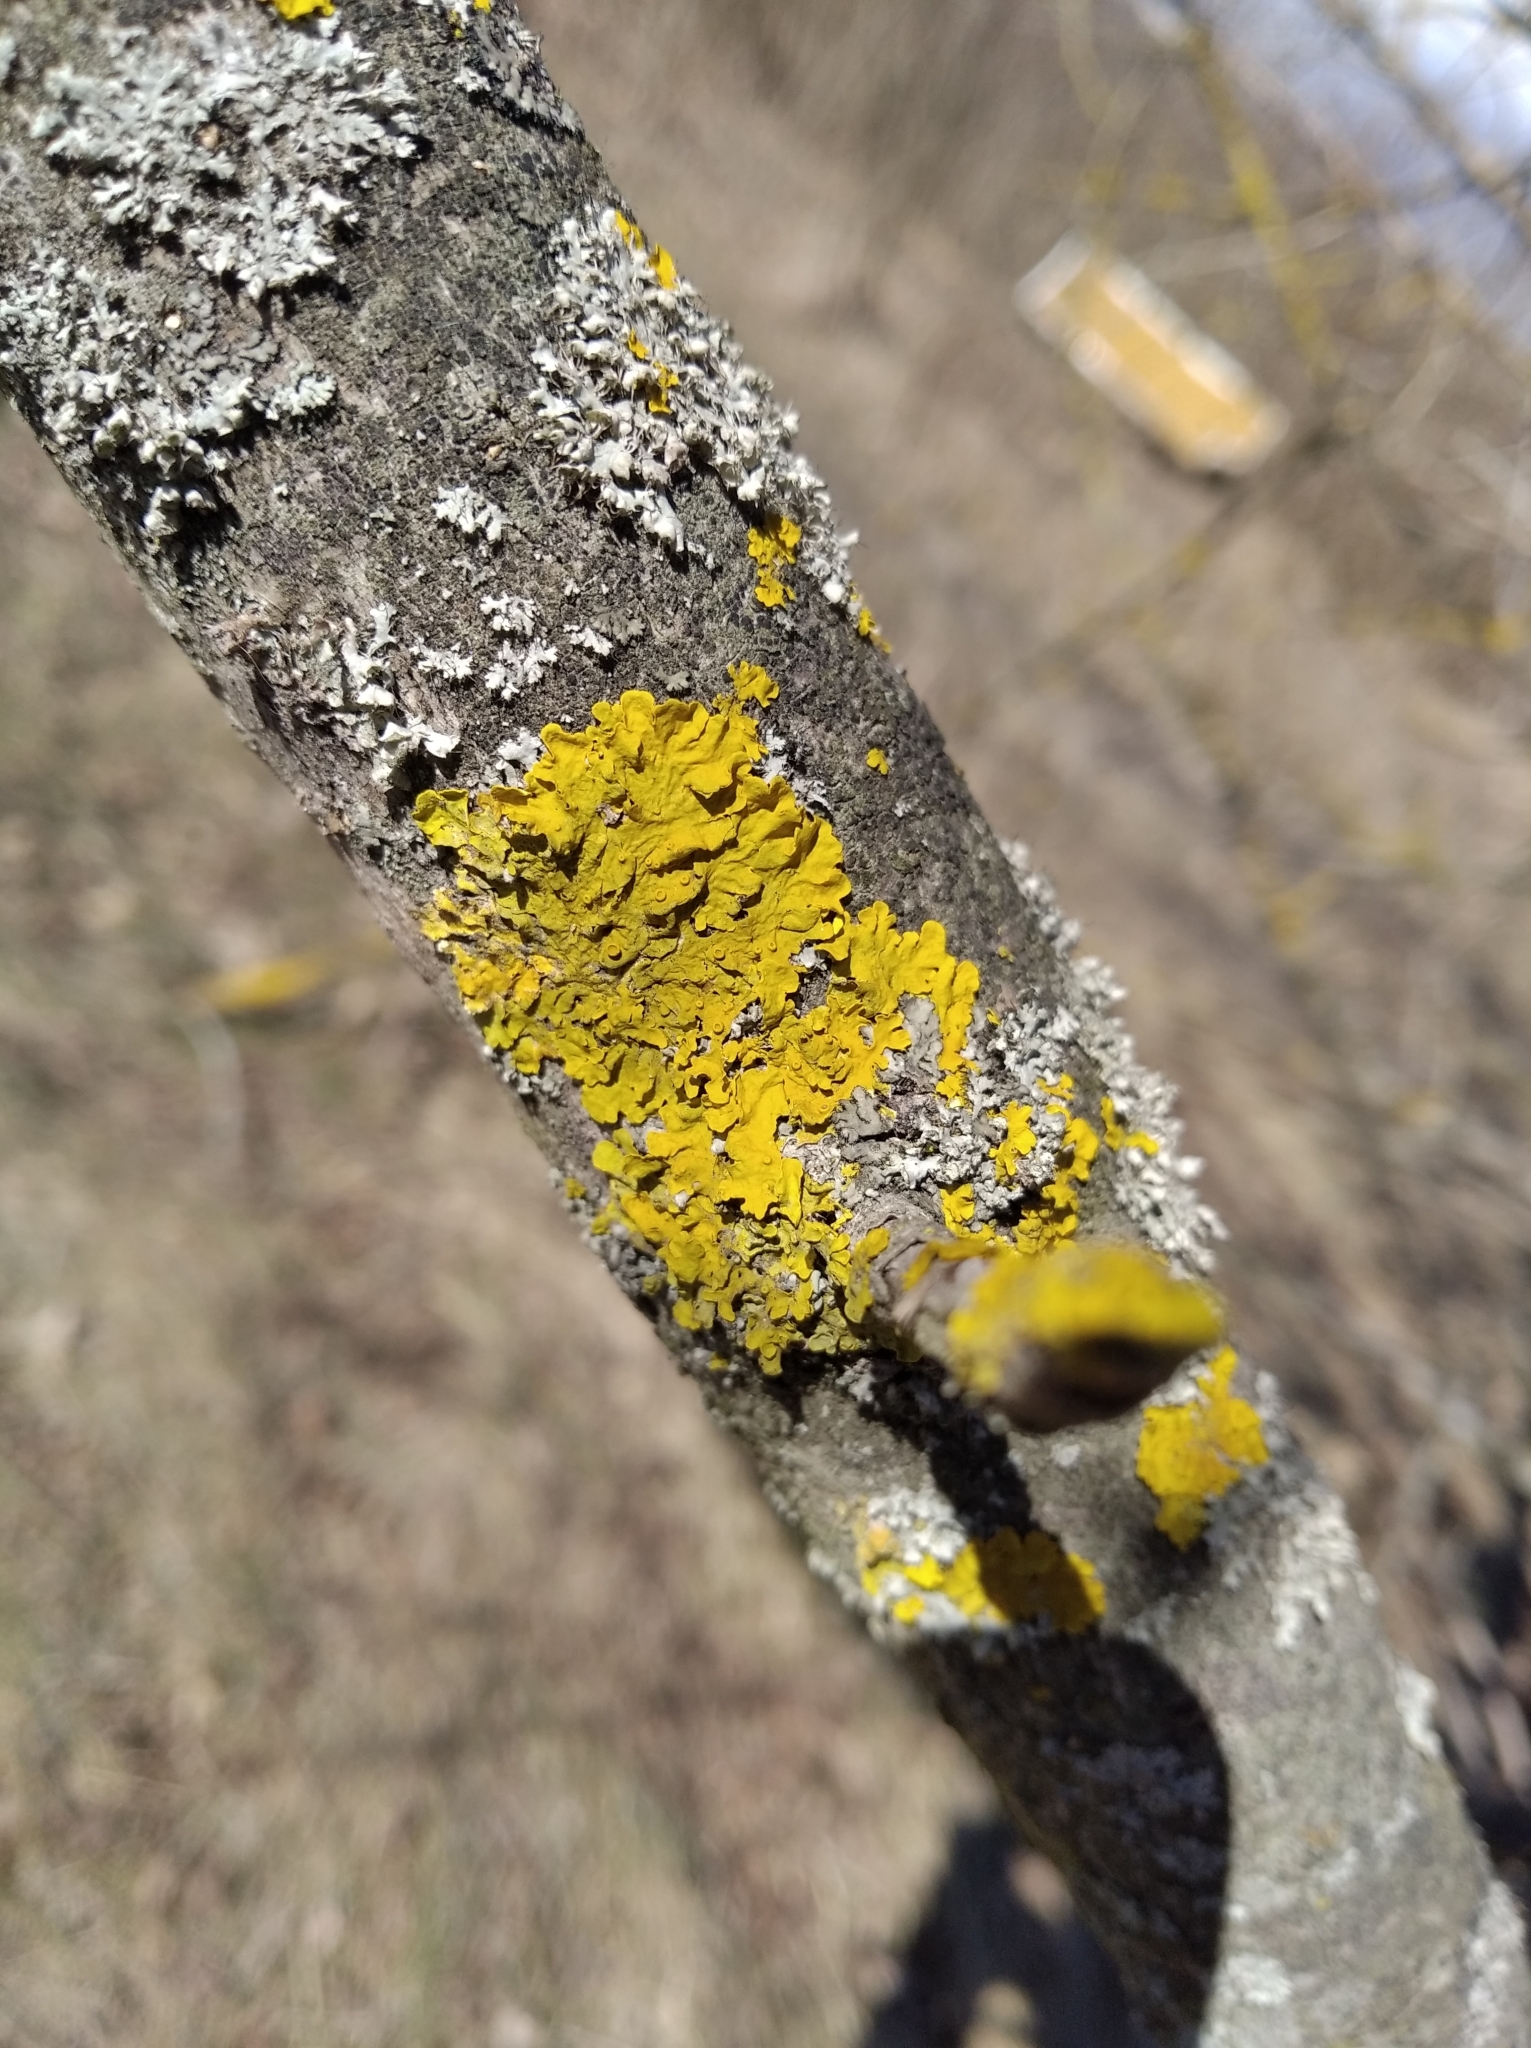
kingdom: Fungi
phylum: Ascomycota
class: Lecanoromycetes
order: Teloschistales
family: Teloschistaceae
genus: Xanthoria
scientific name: Xanthoria parietina
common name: Common orange lichen
